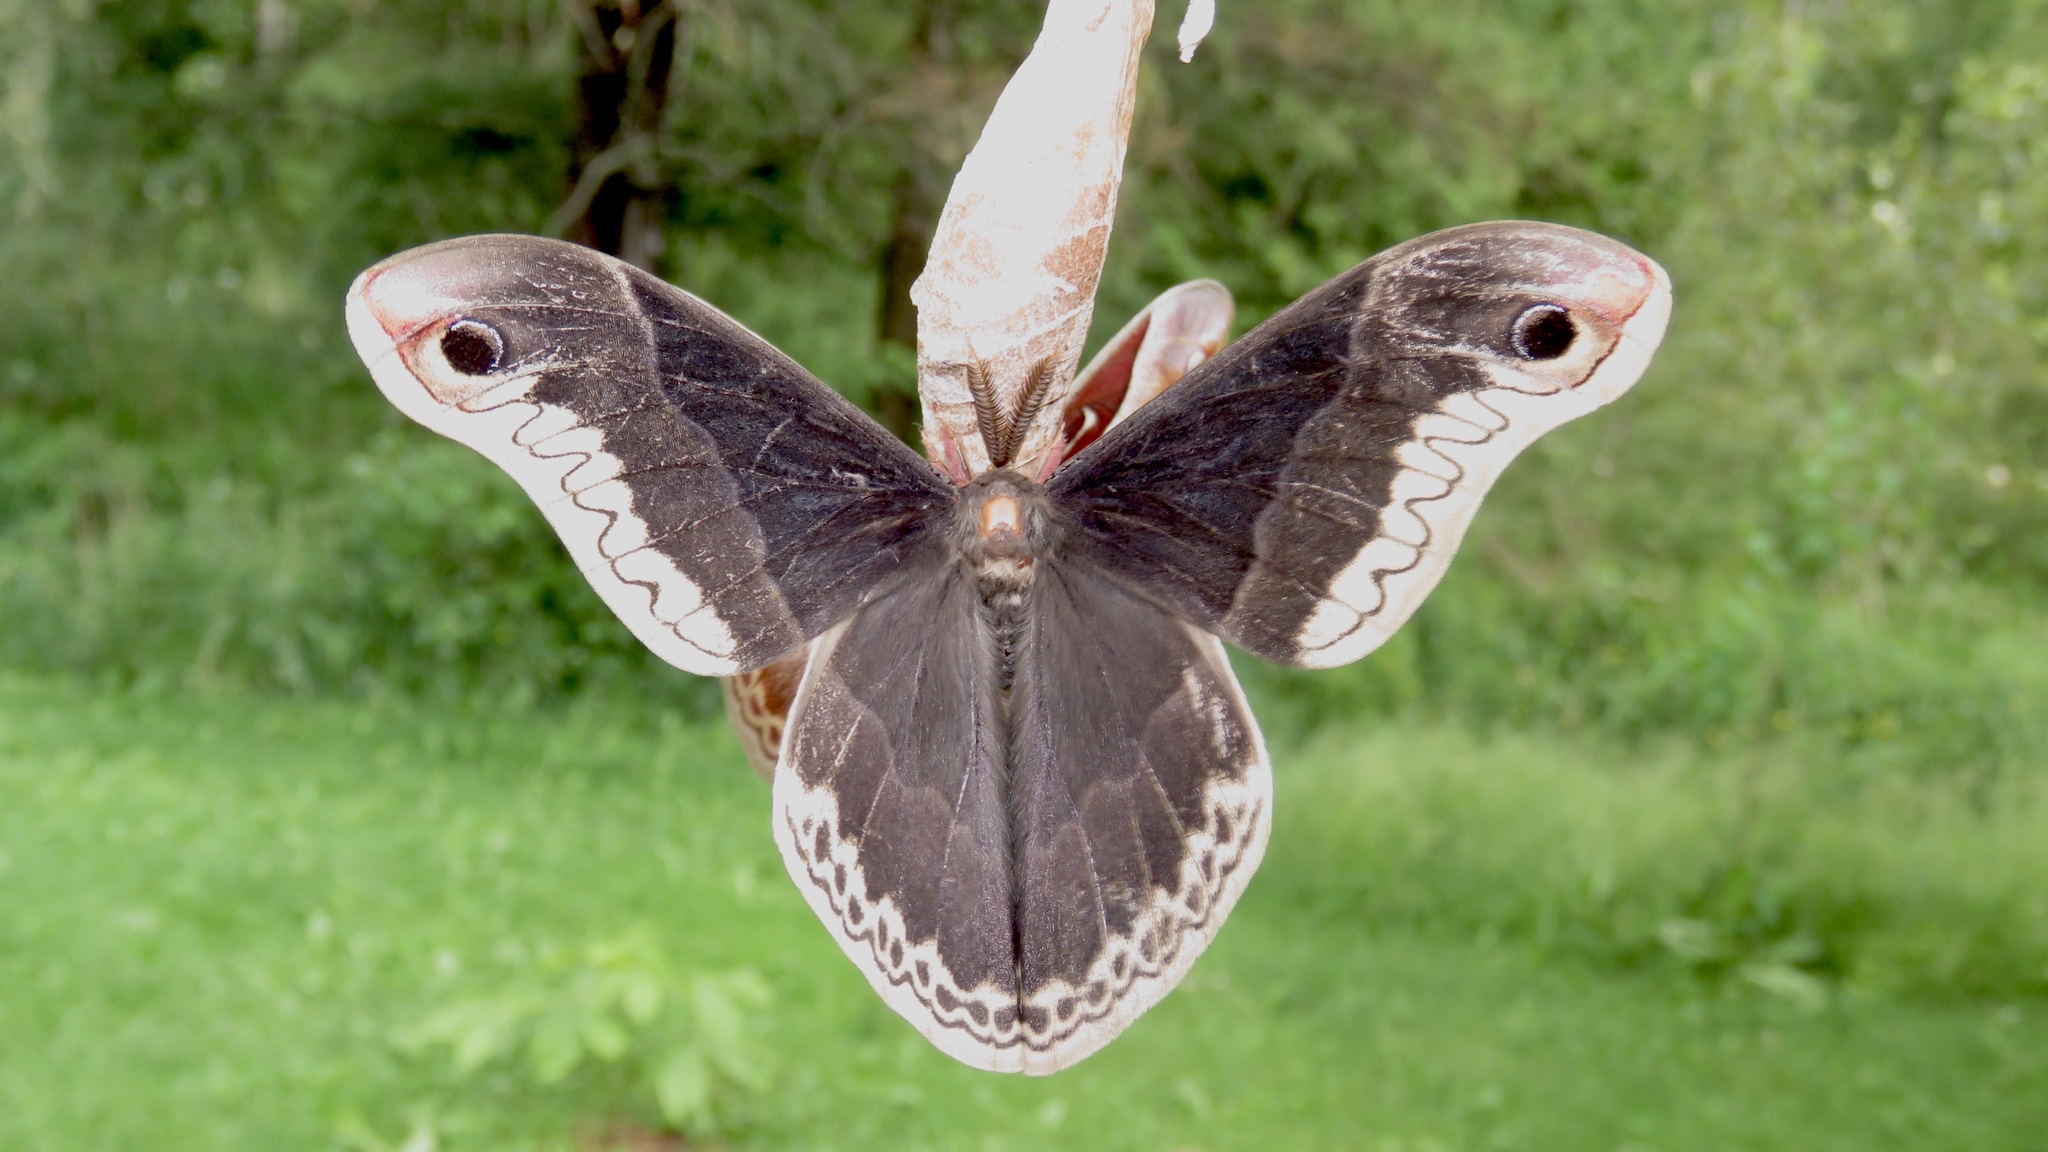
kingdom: Animalia
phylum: Arthropoda
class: Insecta
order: Lepidoptera
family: Saturniidae
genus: Callosamia
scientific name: Callosamia promethea
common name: Promethea silkmoth
